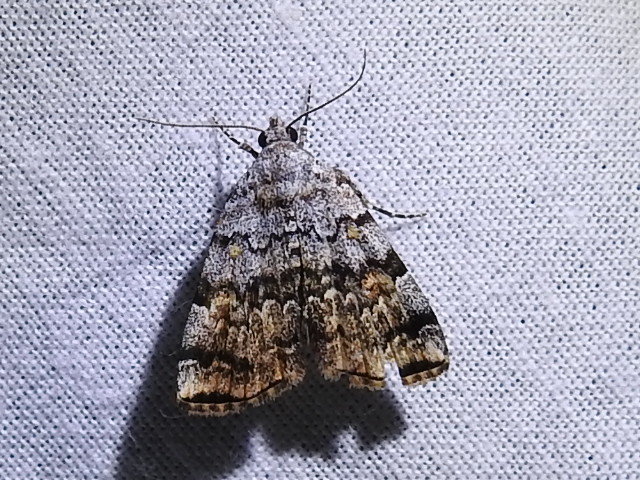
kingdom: Animalia
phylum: Arthropoda
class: Insecta
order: Lepidoptera
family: Erebidae
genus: Idia
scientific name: Idia americalis
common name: American idia moth
